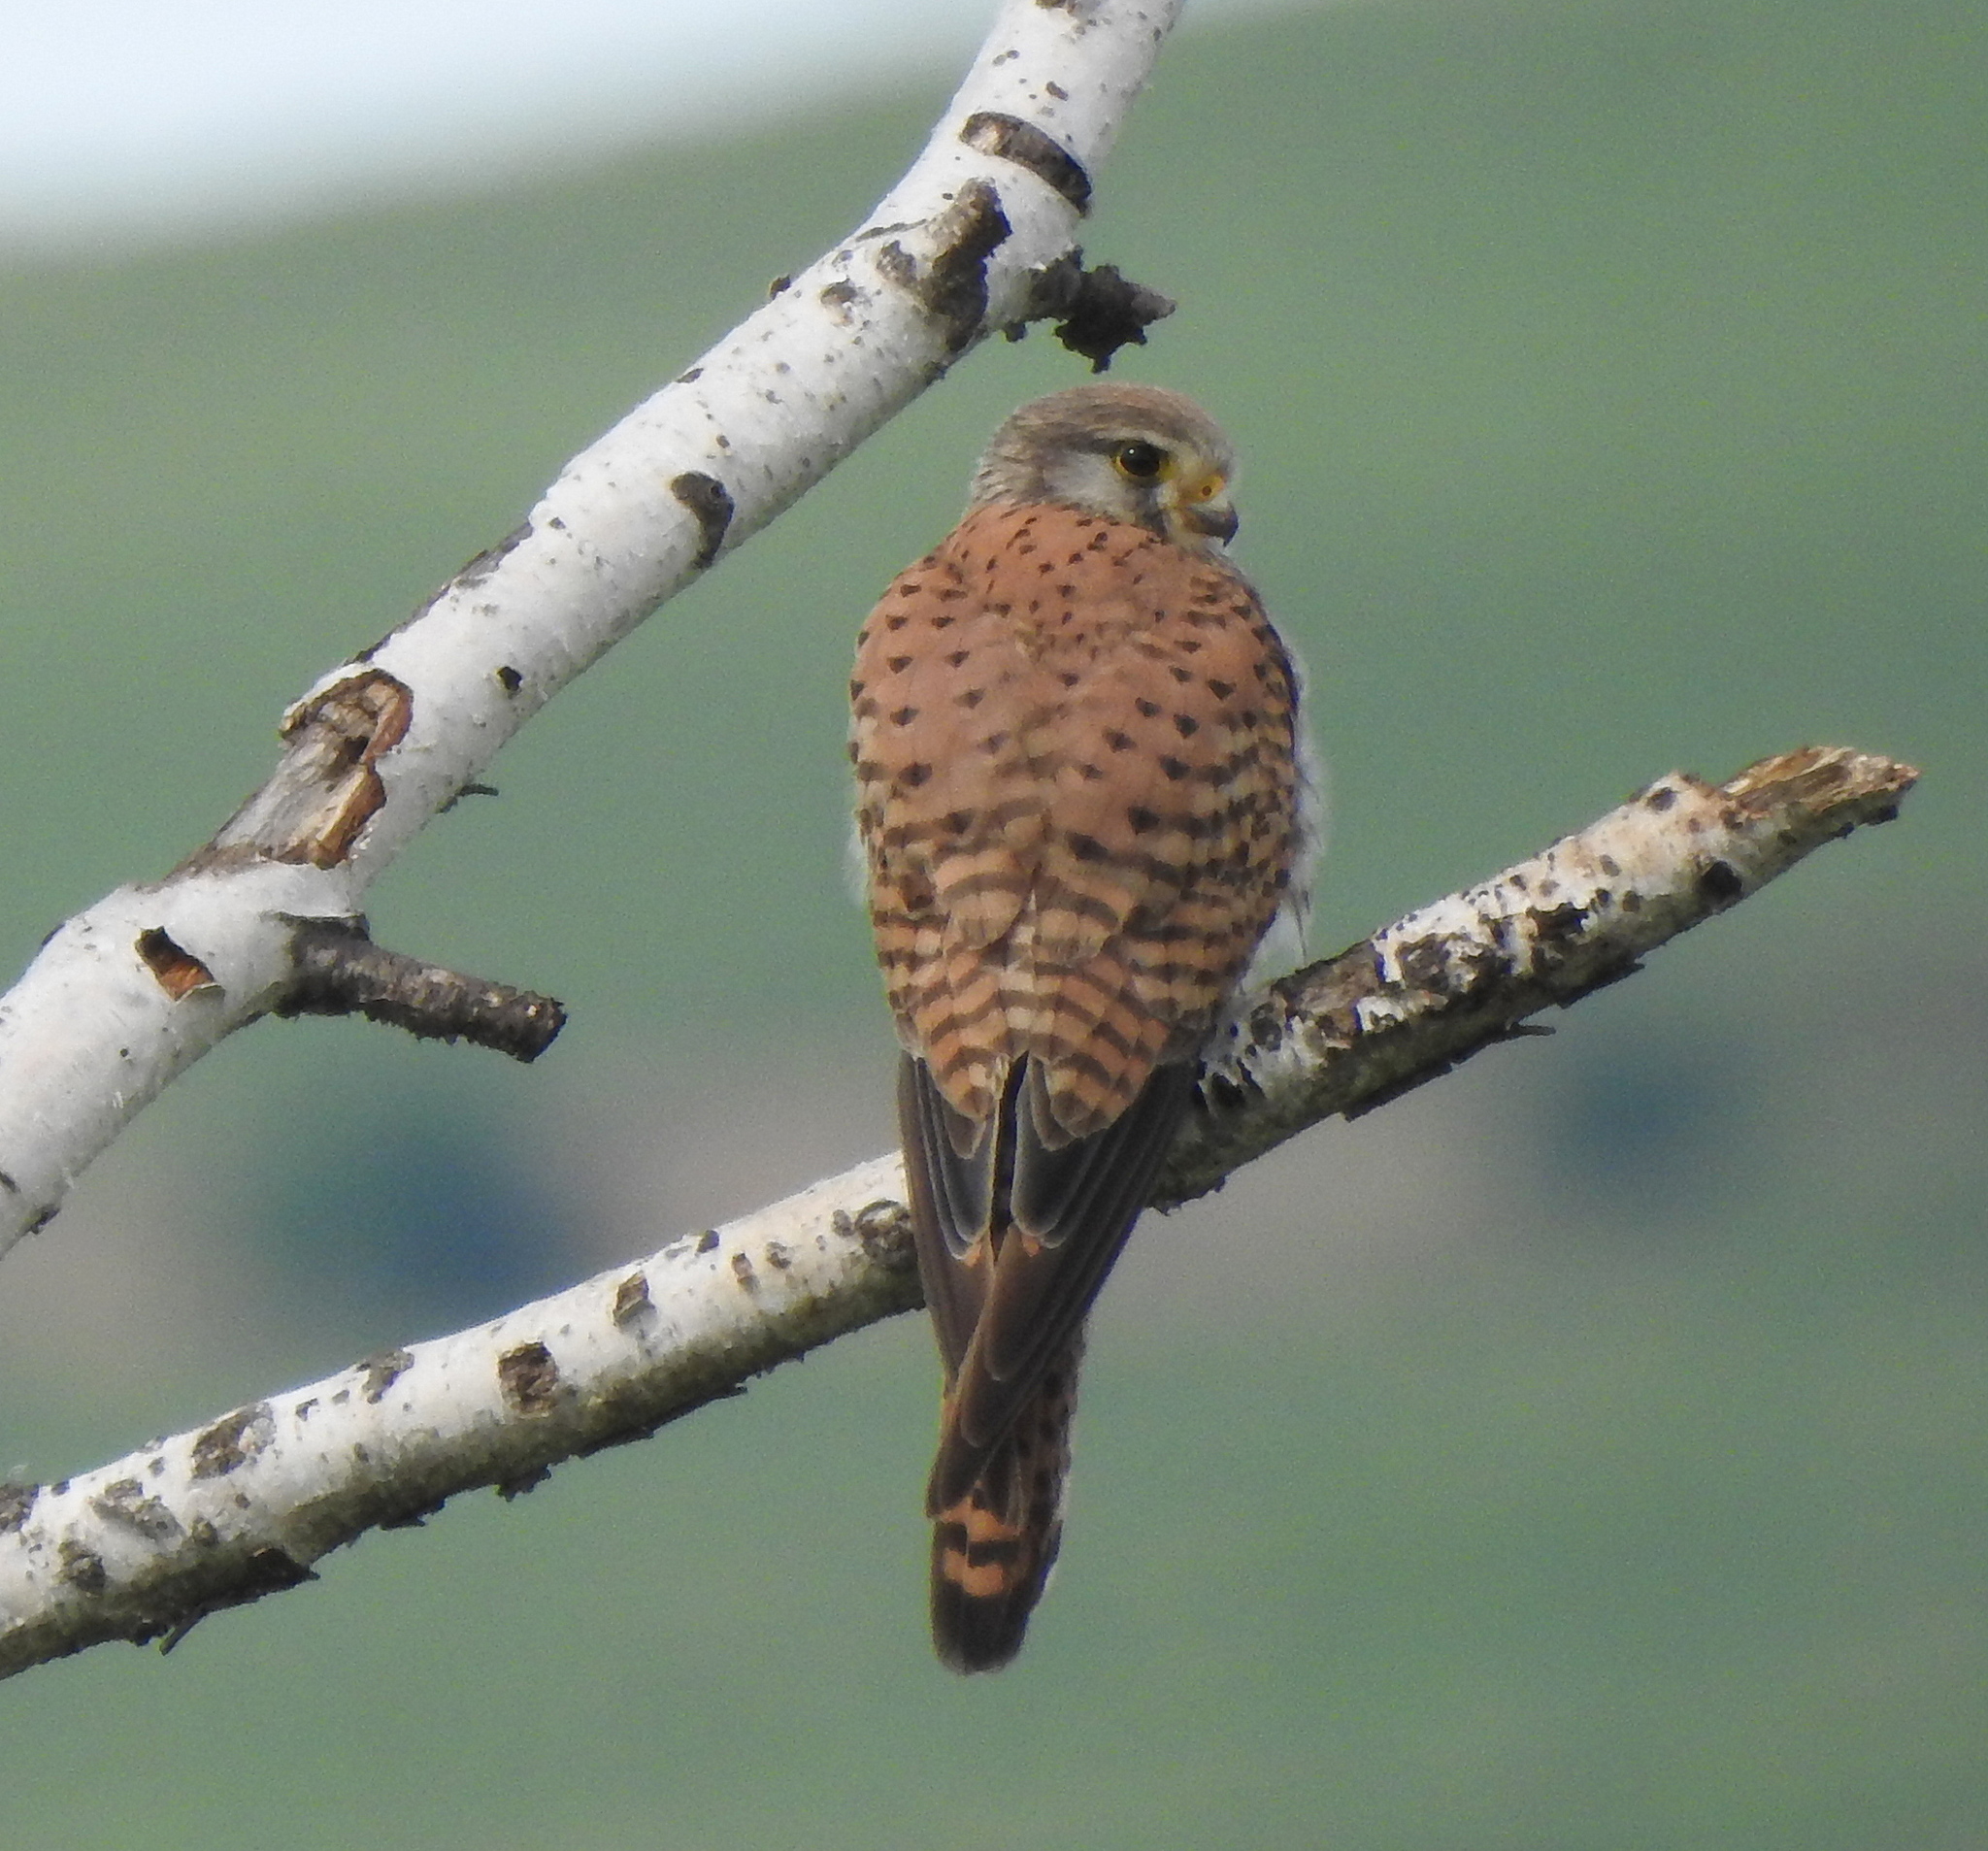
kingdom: Animalia
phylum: Chordata
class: Aves
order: Falconiformes
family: Falconidae
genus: Falco
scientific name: Falco tinnunculus
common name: Common kestrel
